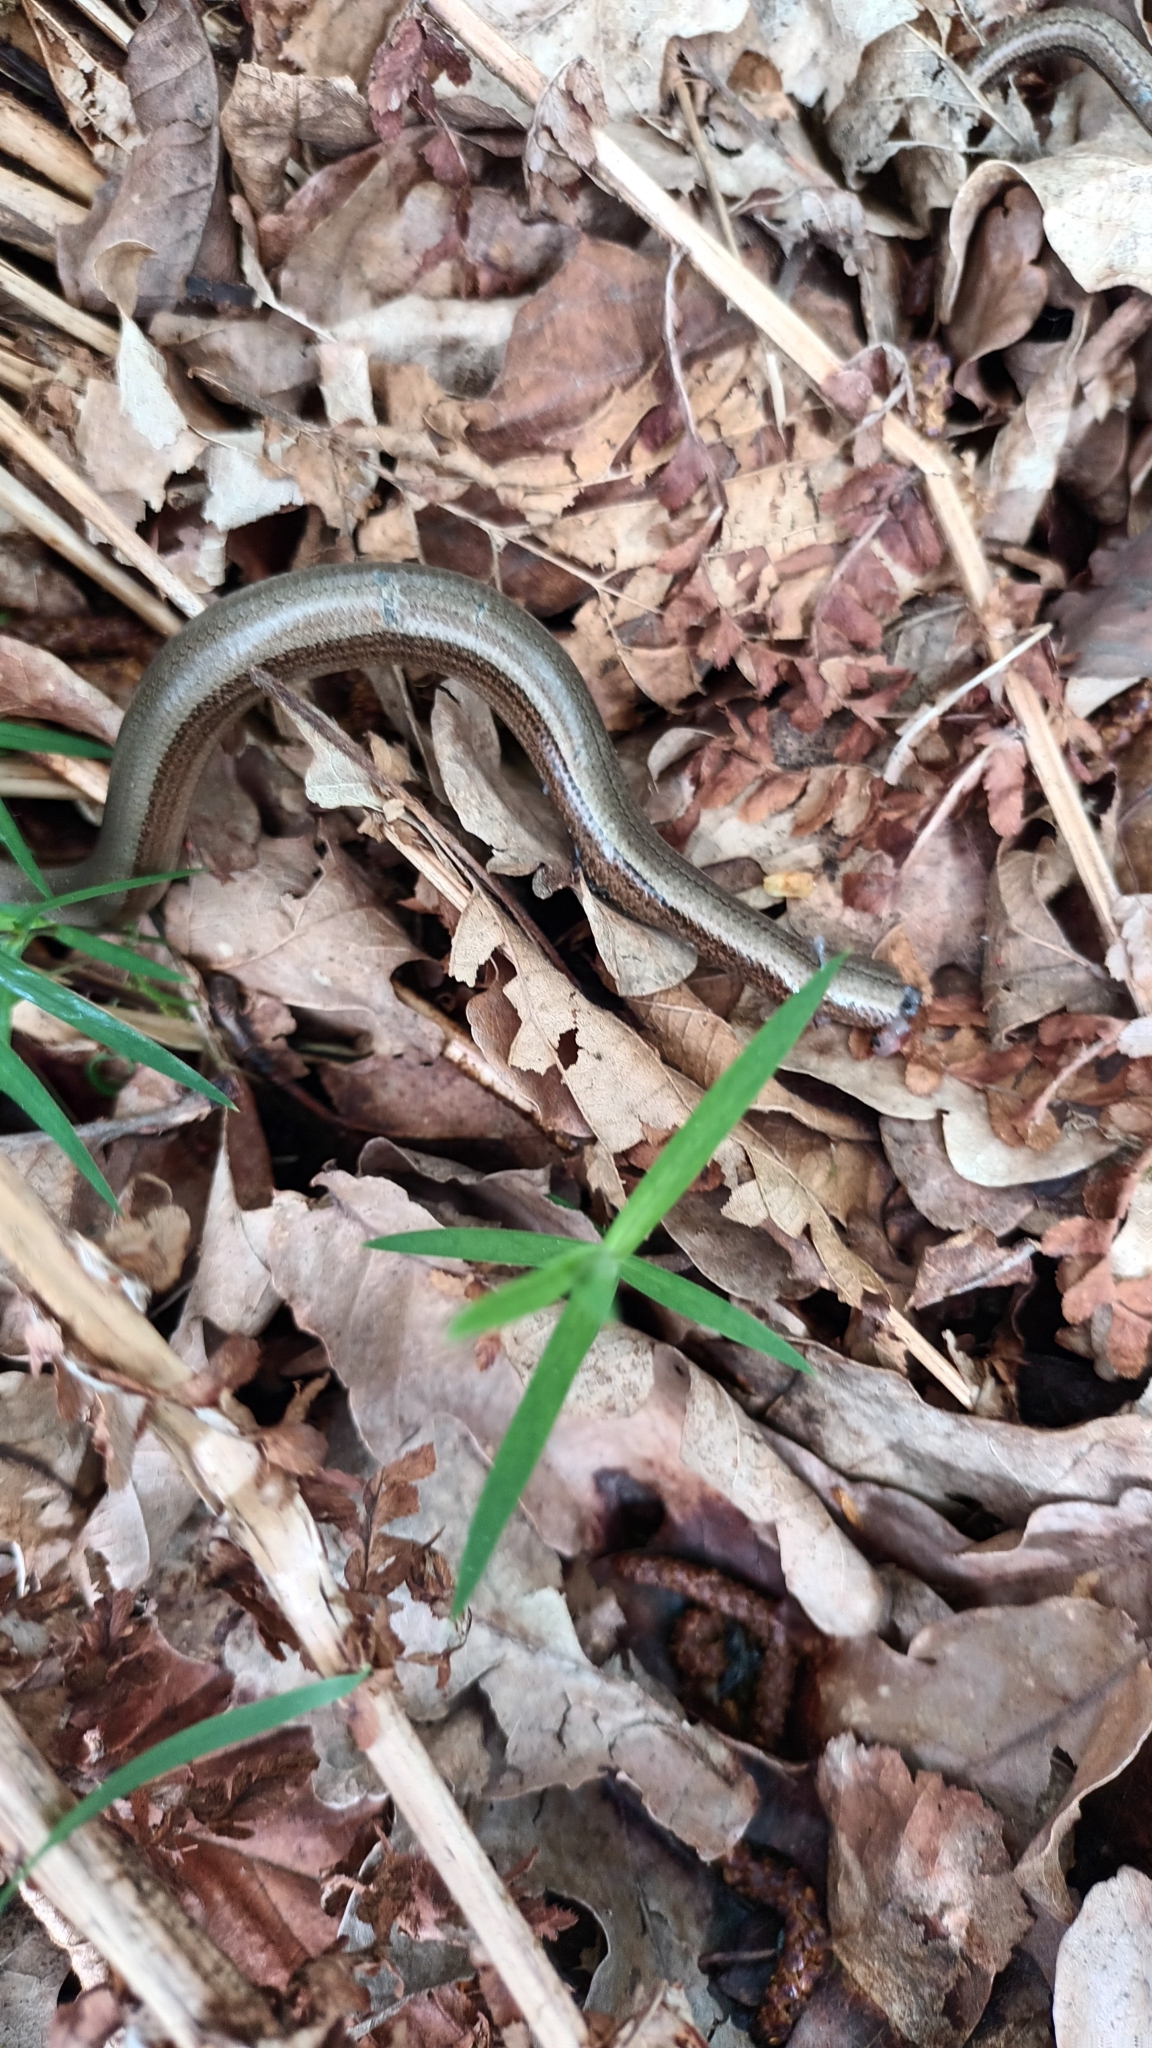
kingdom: Animalia
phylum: Chordata
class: Squamata
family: Anguidae
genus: Anguis
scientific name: Anguis fragilis
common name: Slow worm
